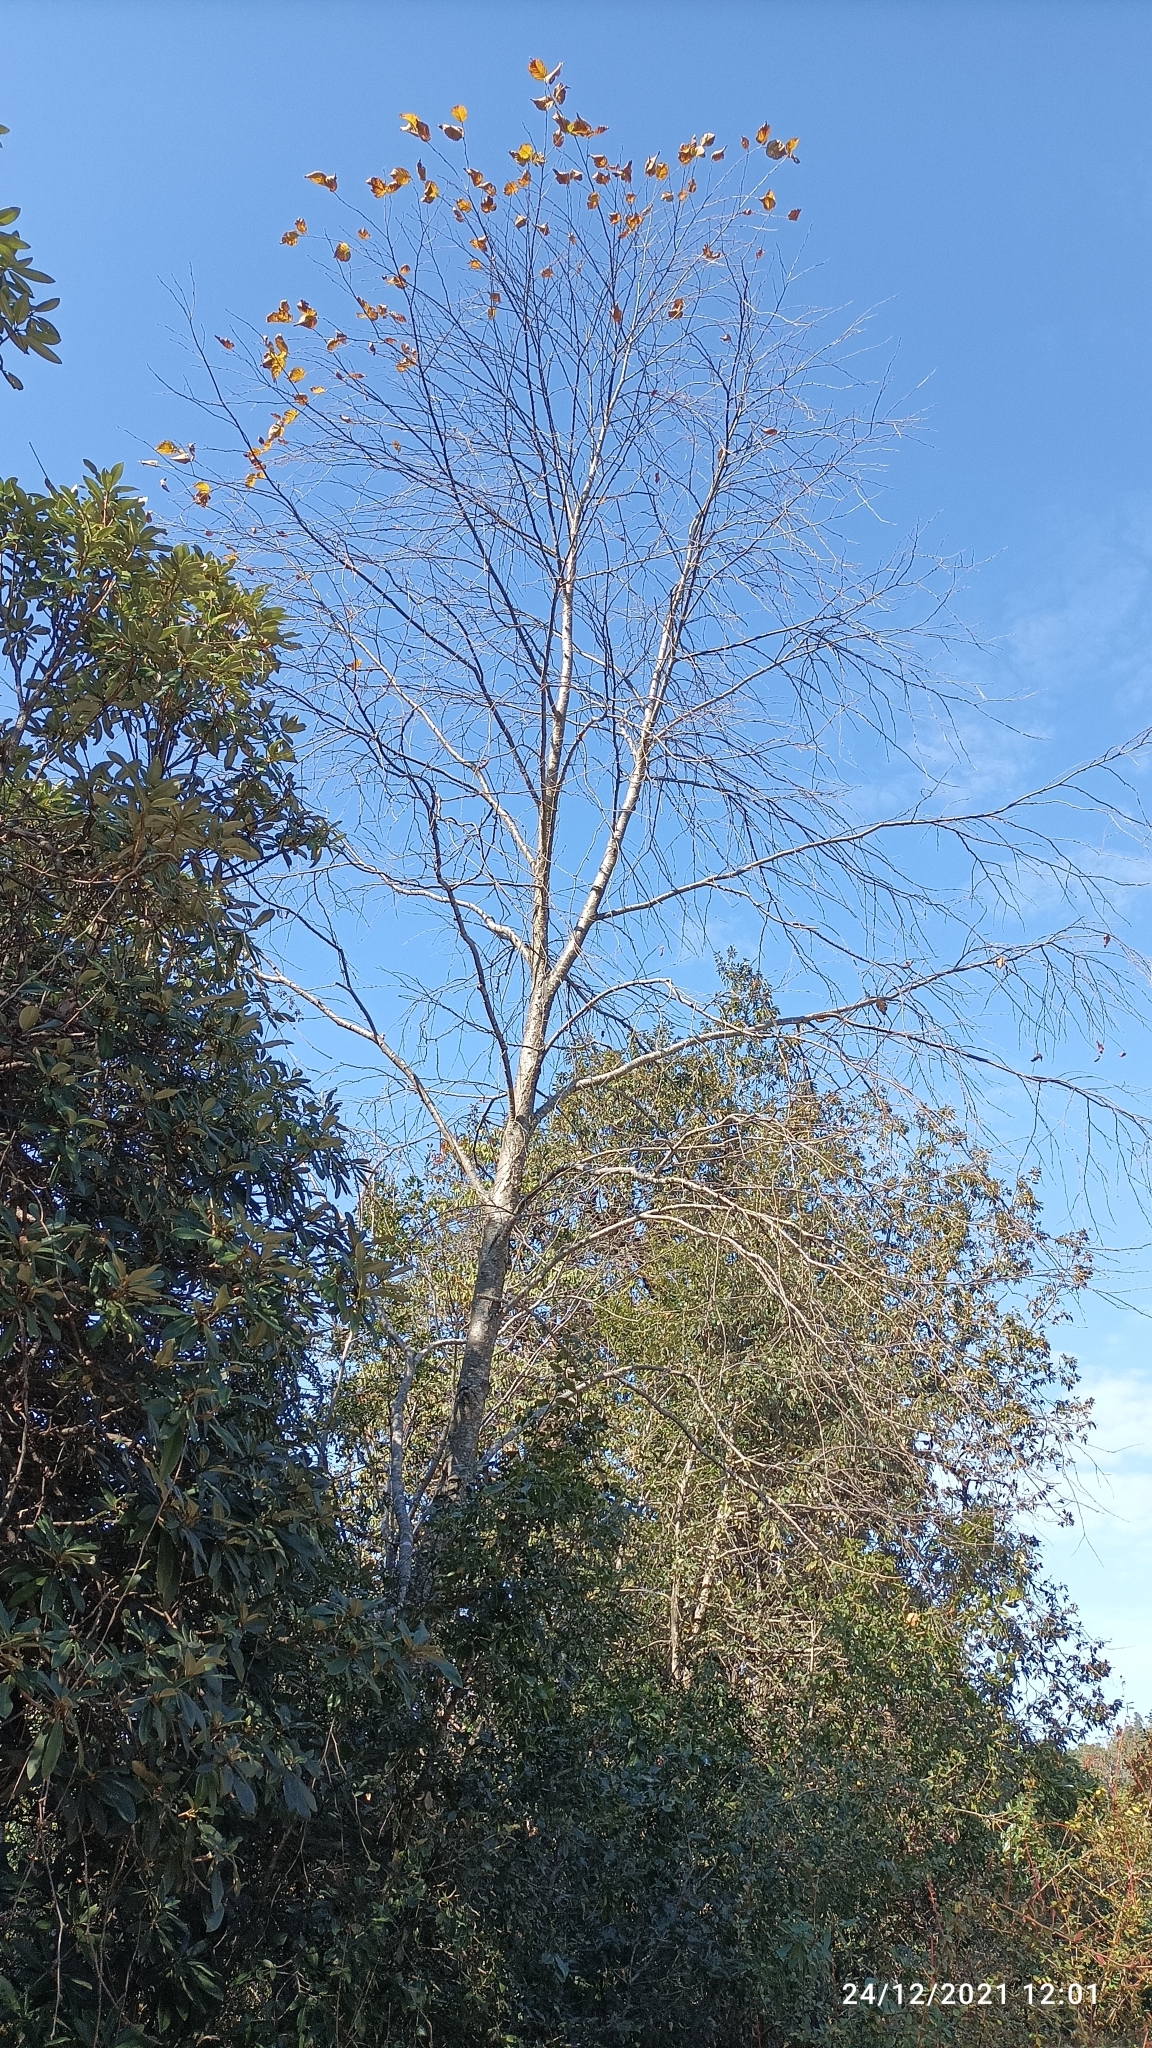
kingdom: Plantae
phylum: Tracheophyta
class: Magnoliopsida
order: Fagales
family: Betulaceae
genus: Betula
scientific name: Betula alnoides
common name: Indian birch
